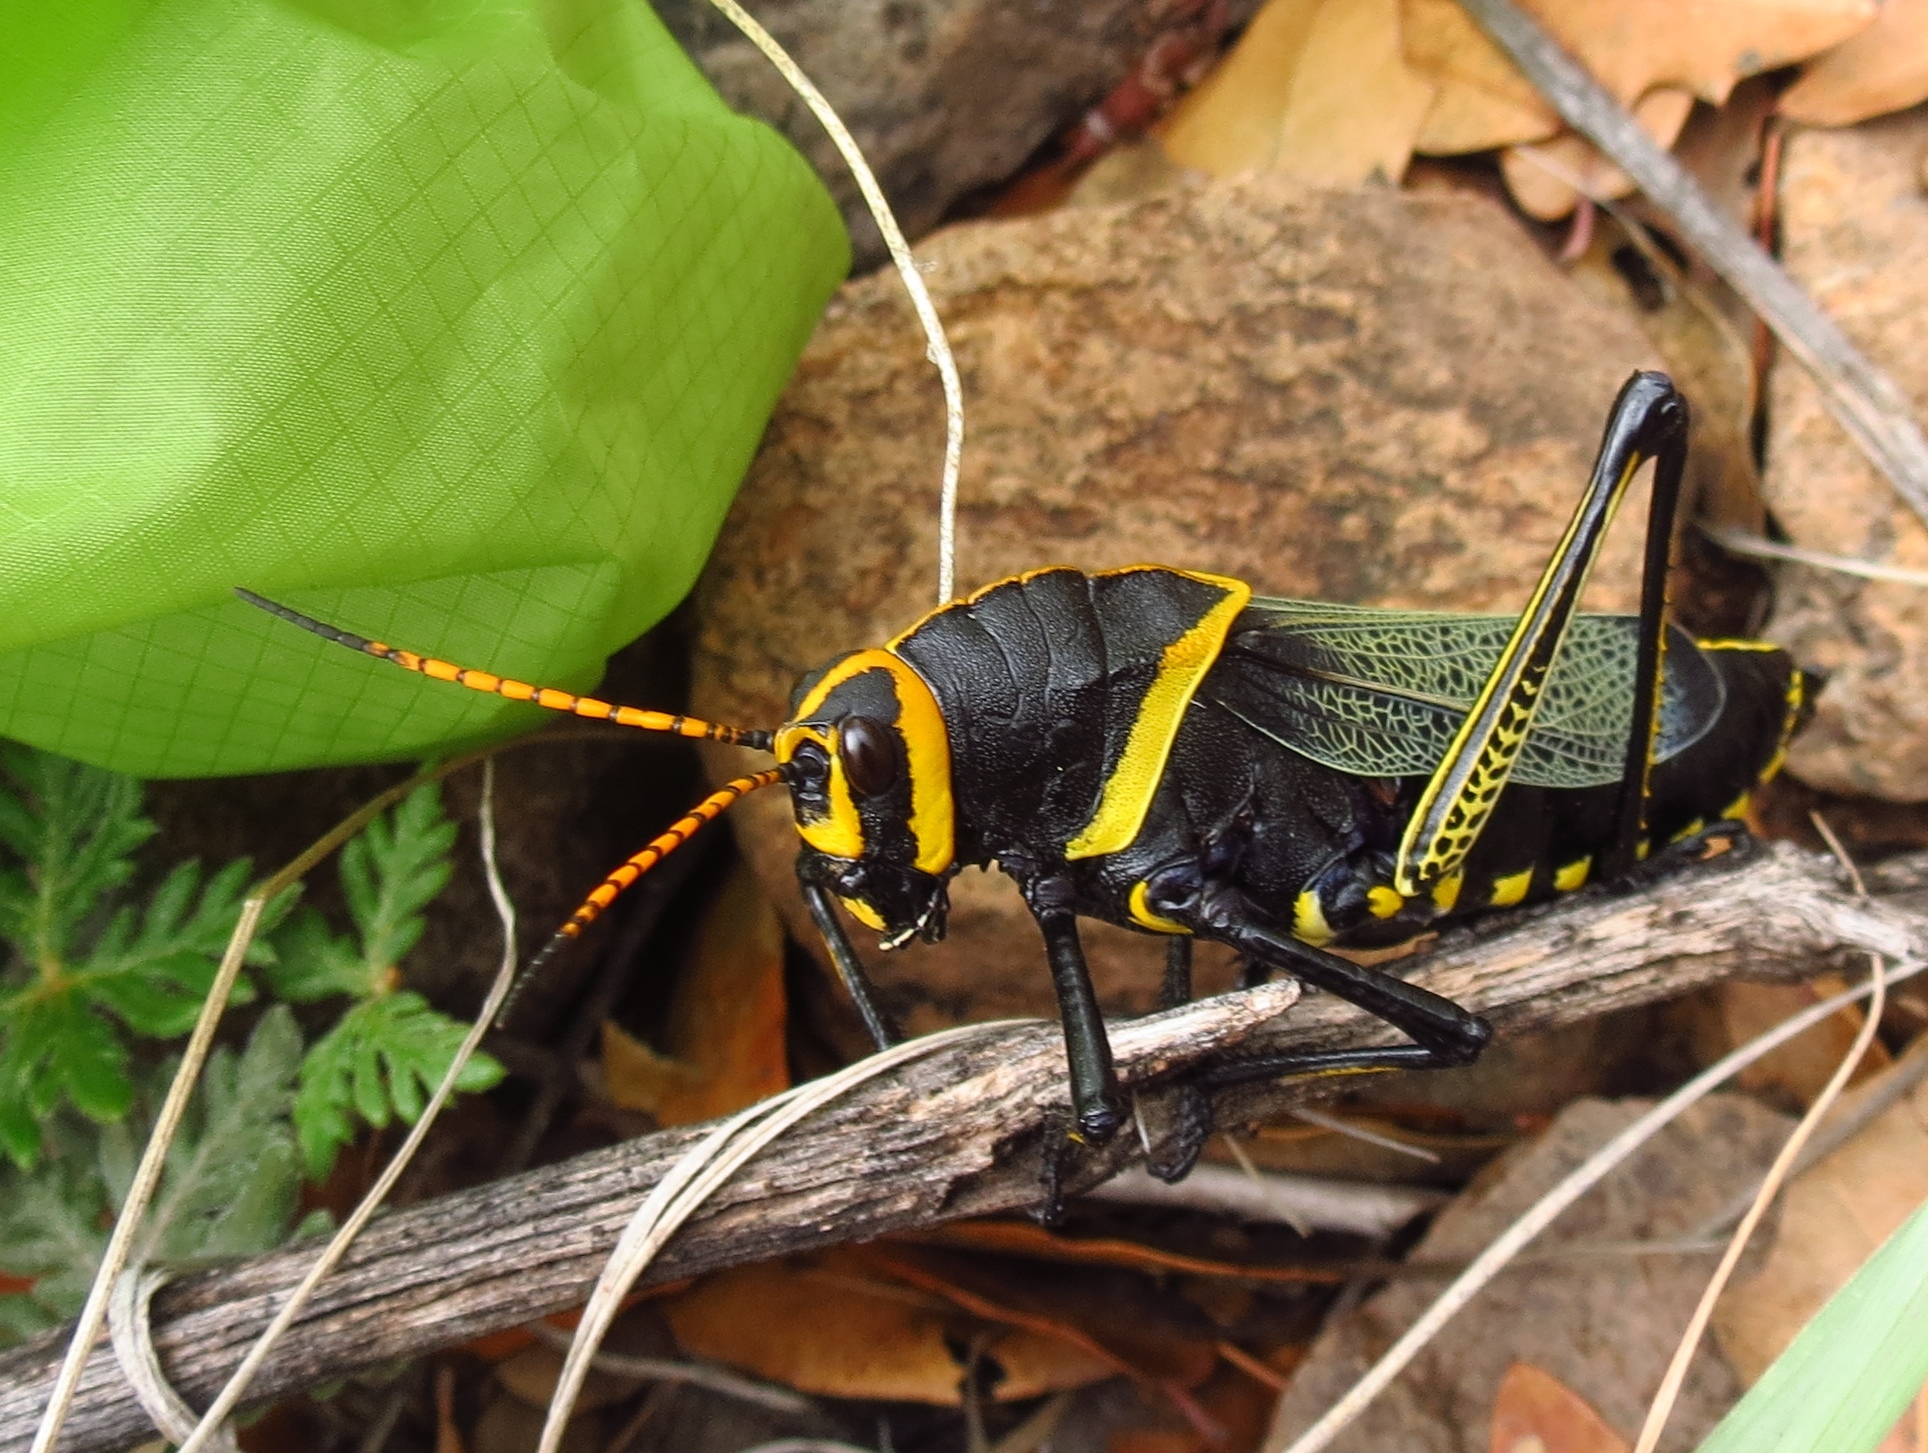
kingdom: Animalia
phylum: Arthropoda
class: Insecta
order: Orthoptera
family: Romaleidae
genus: Romalea
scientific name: Romalea
